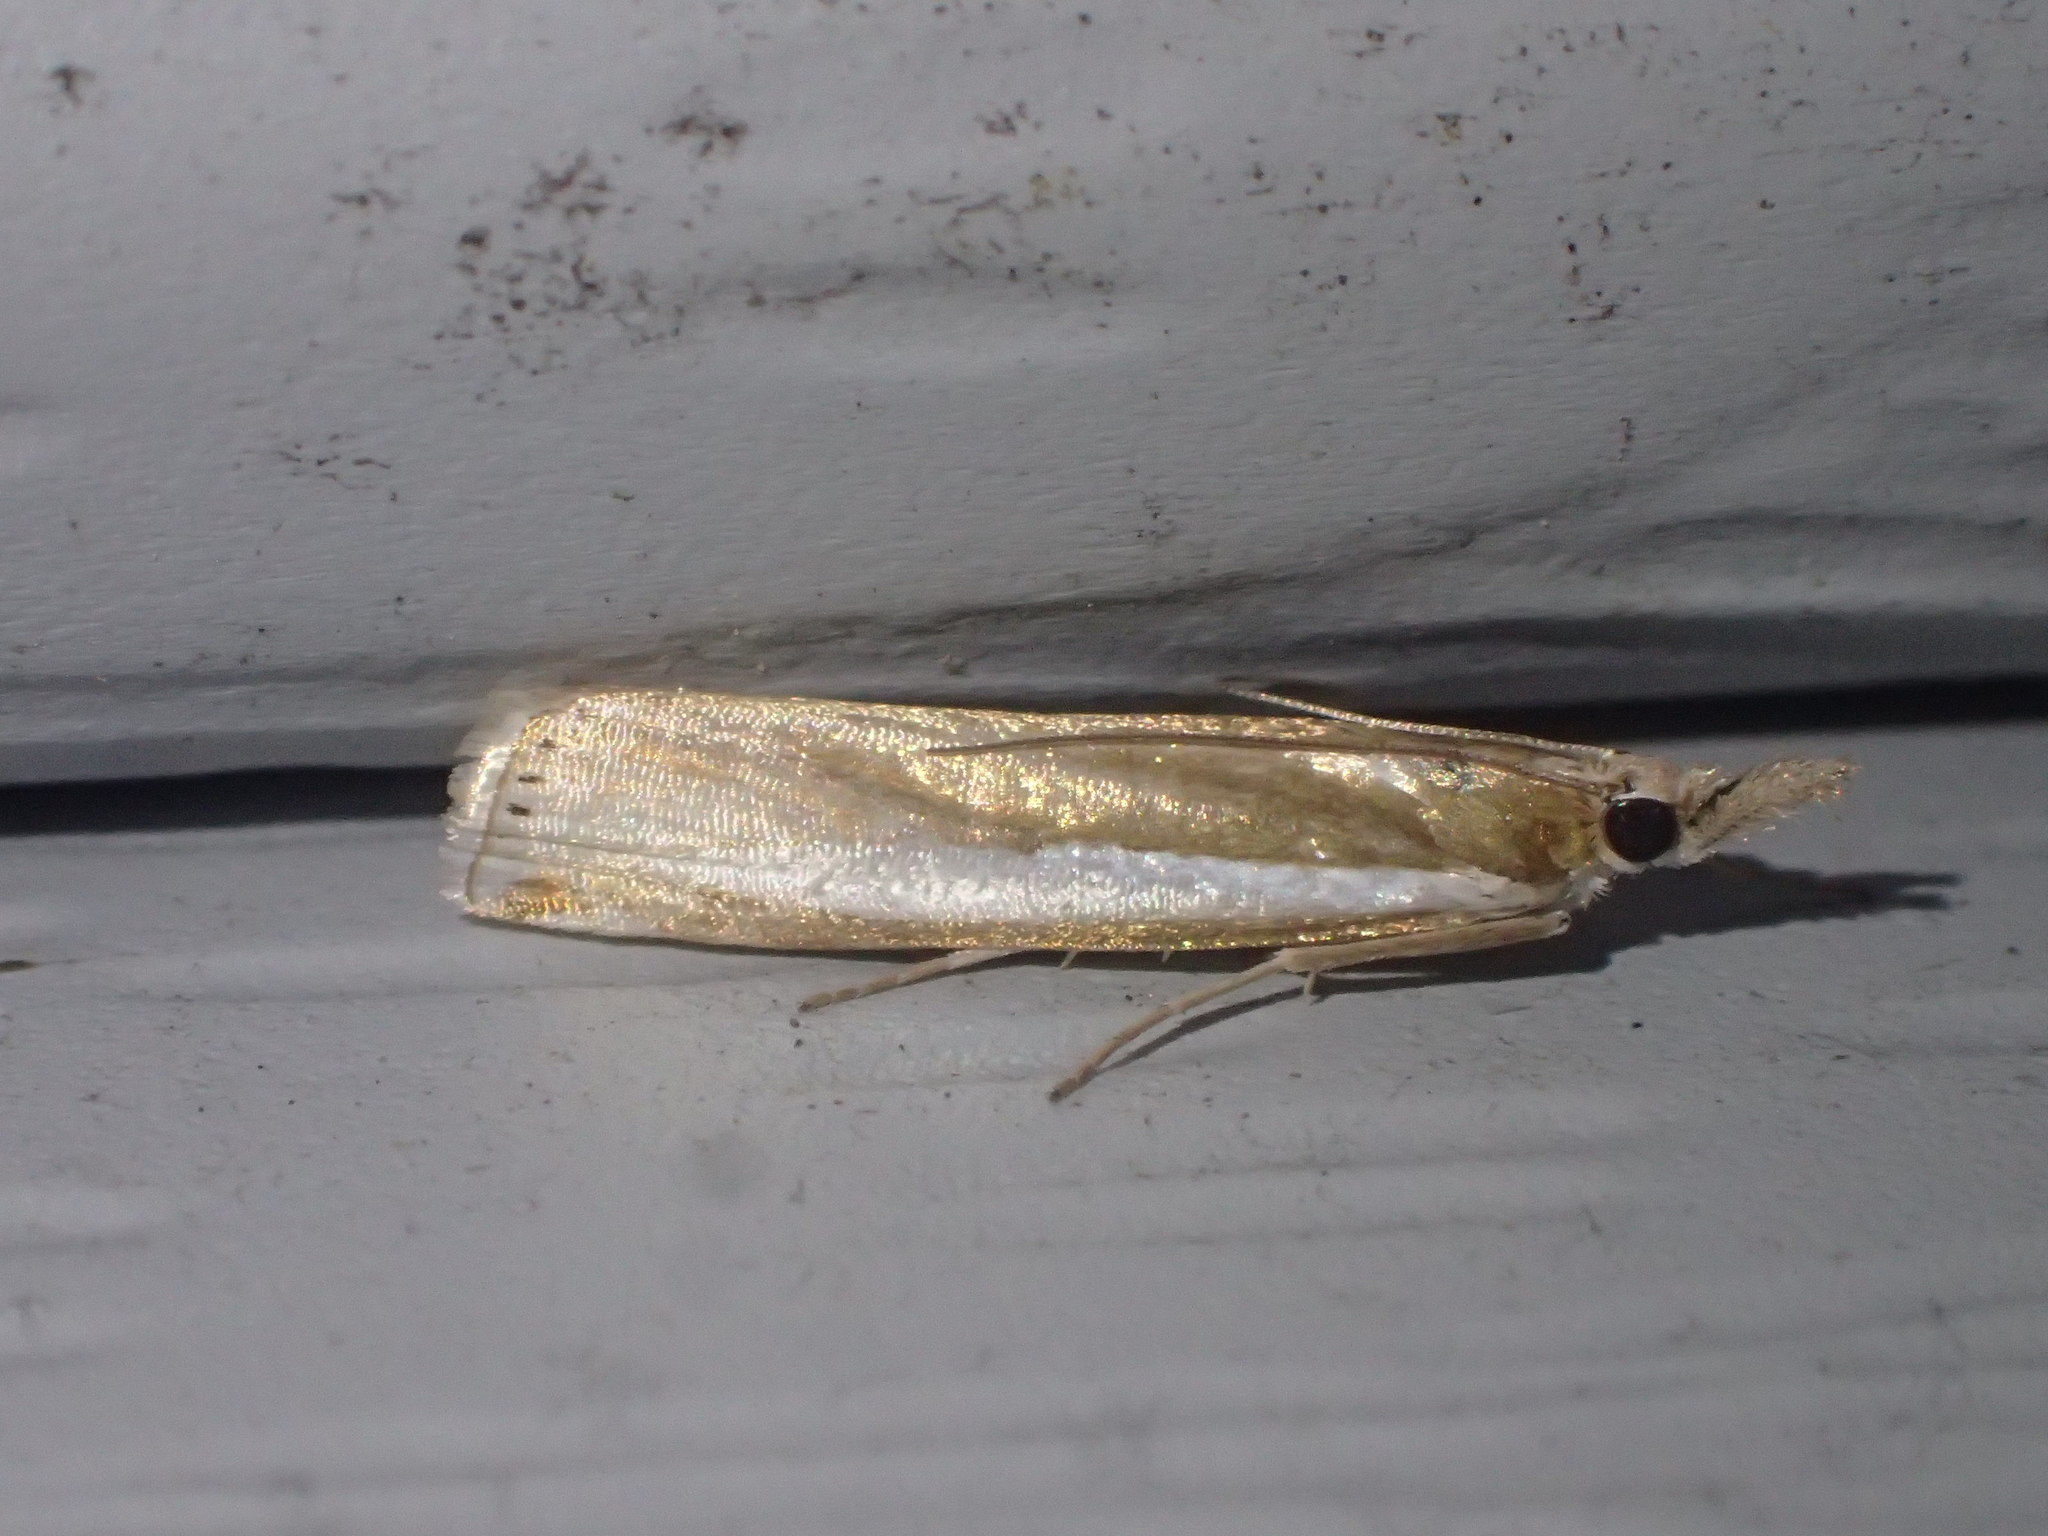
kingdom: Animalia
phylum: Arthropoda
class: Insecta
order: Lepidoptera
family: Crambidae
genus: Crambus
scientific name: Crambus praefectellus
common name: Common grass-veneer
